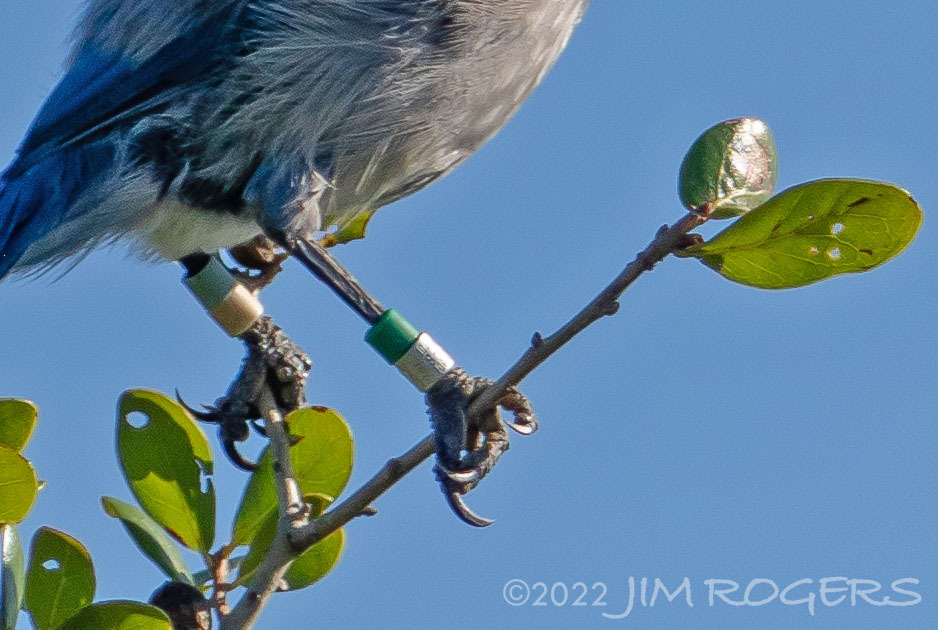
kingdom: Animalia
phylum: Chordata
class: Aves
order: Passeriformes
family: Corvidae
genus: Aphelocoma
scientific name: Aphelocoma coerulescens
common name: Florida scrub jay
